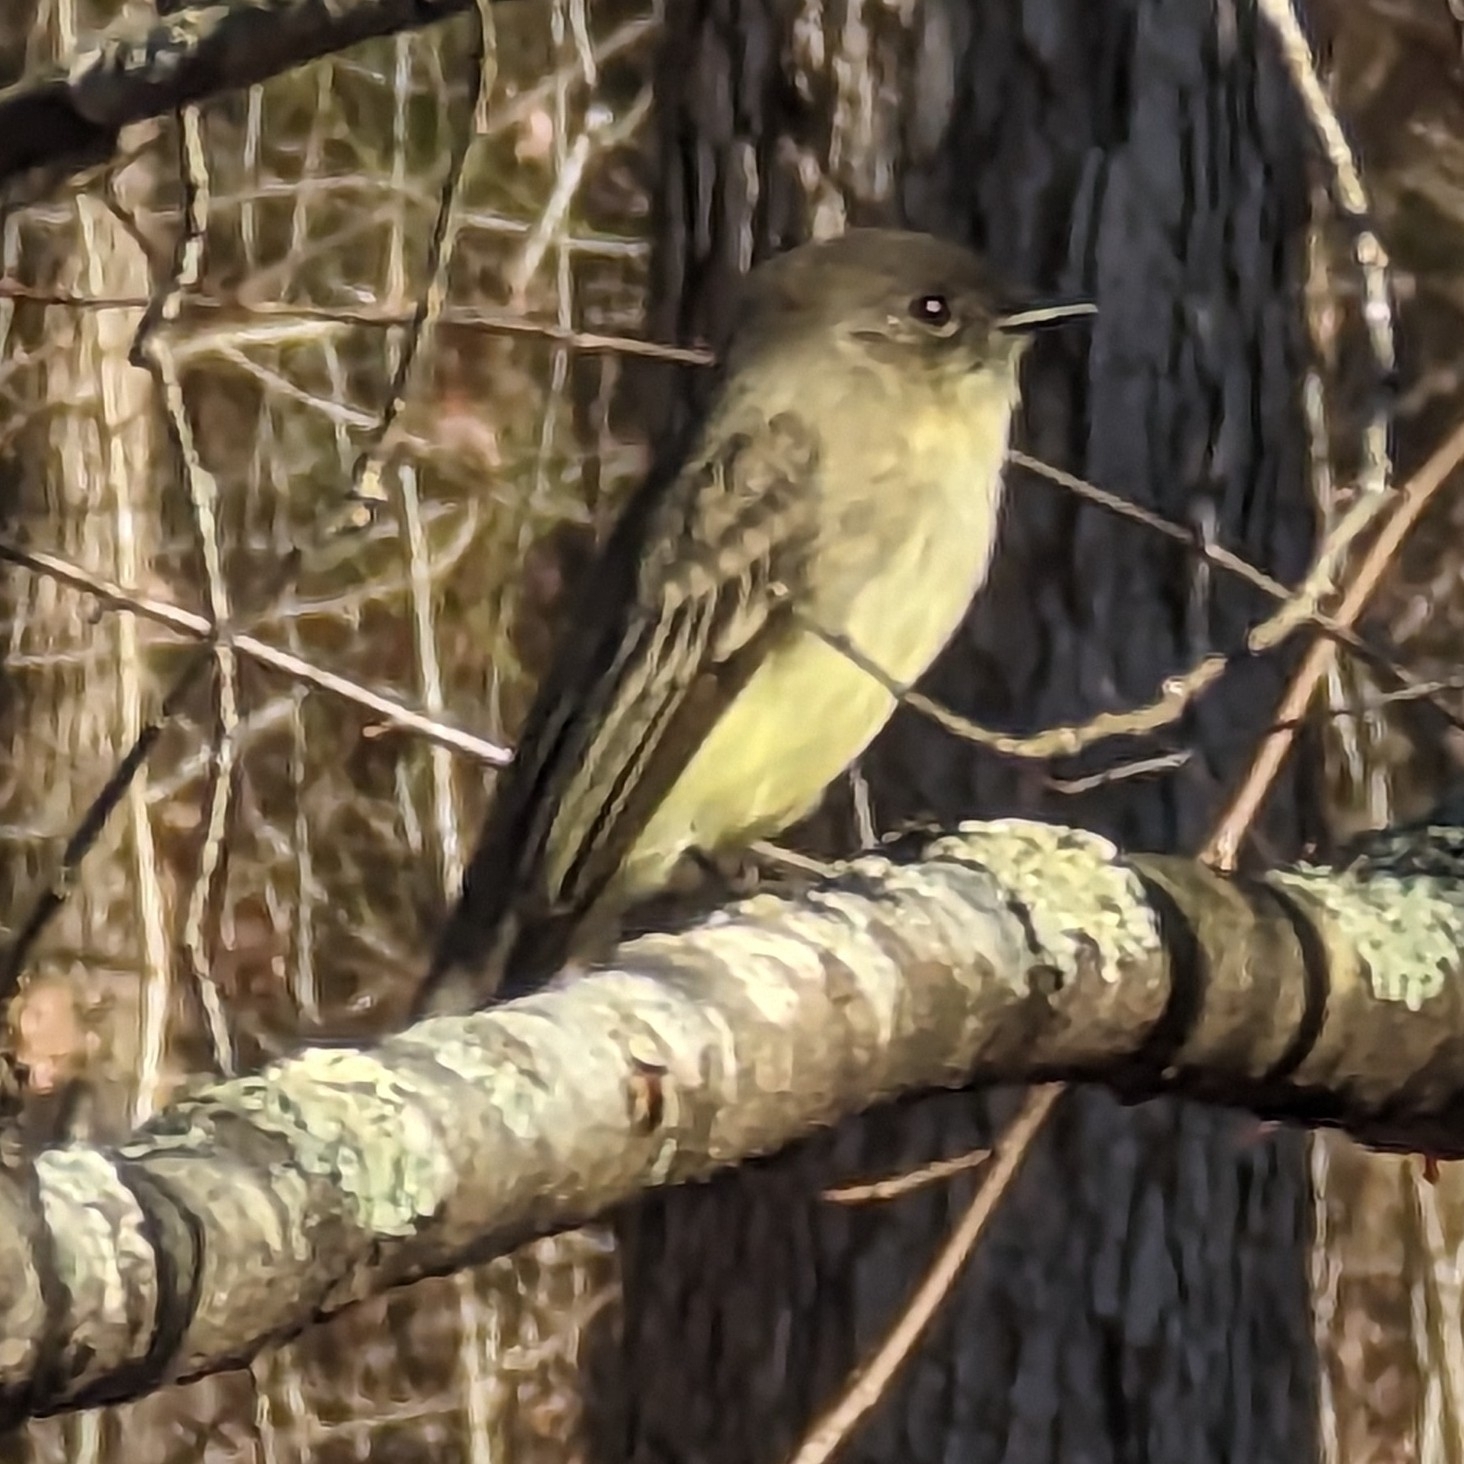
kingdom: Animalia
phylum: Chordata
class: Aves
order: Passeriformes
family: Tyrannidae
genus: Sayornis
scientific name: Sayornis phoebe
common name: Eastern phoebe
